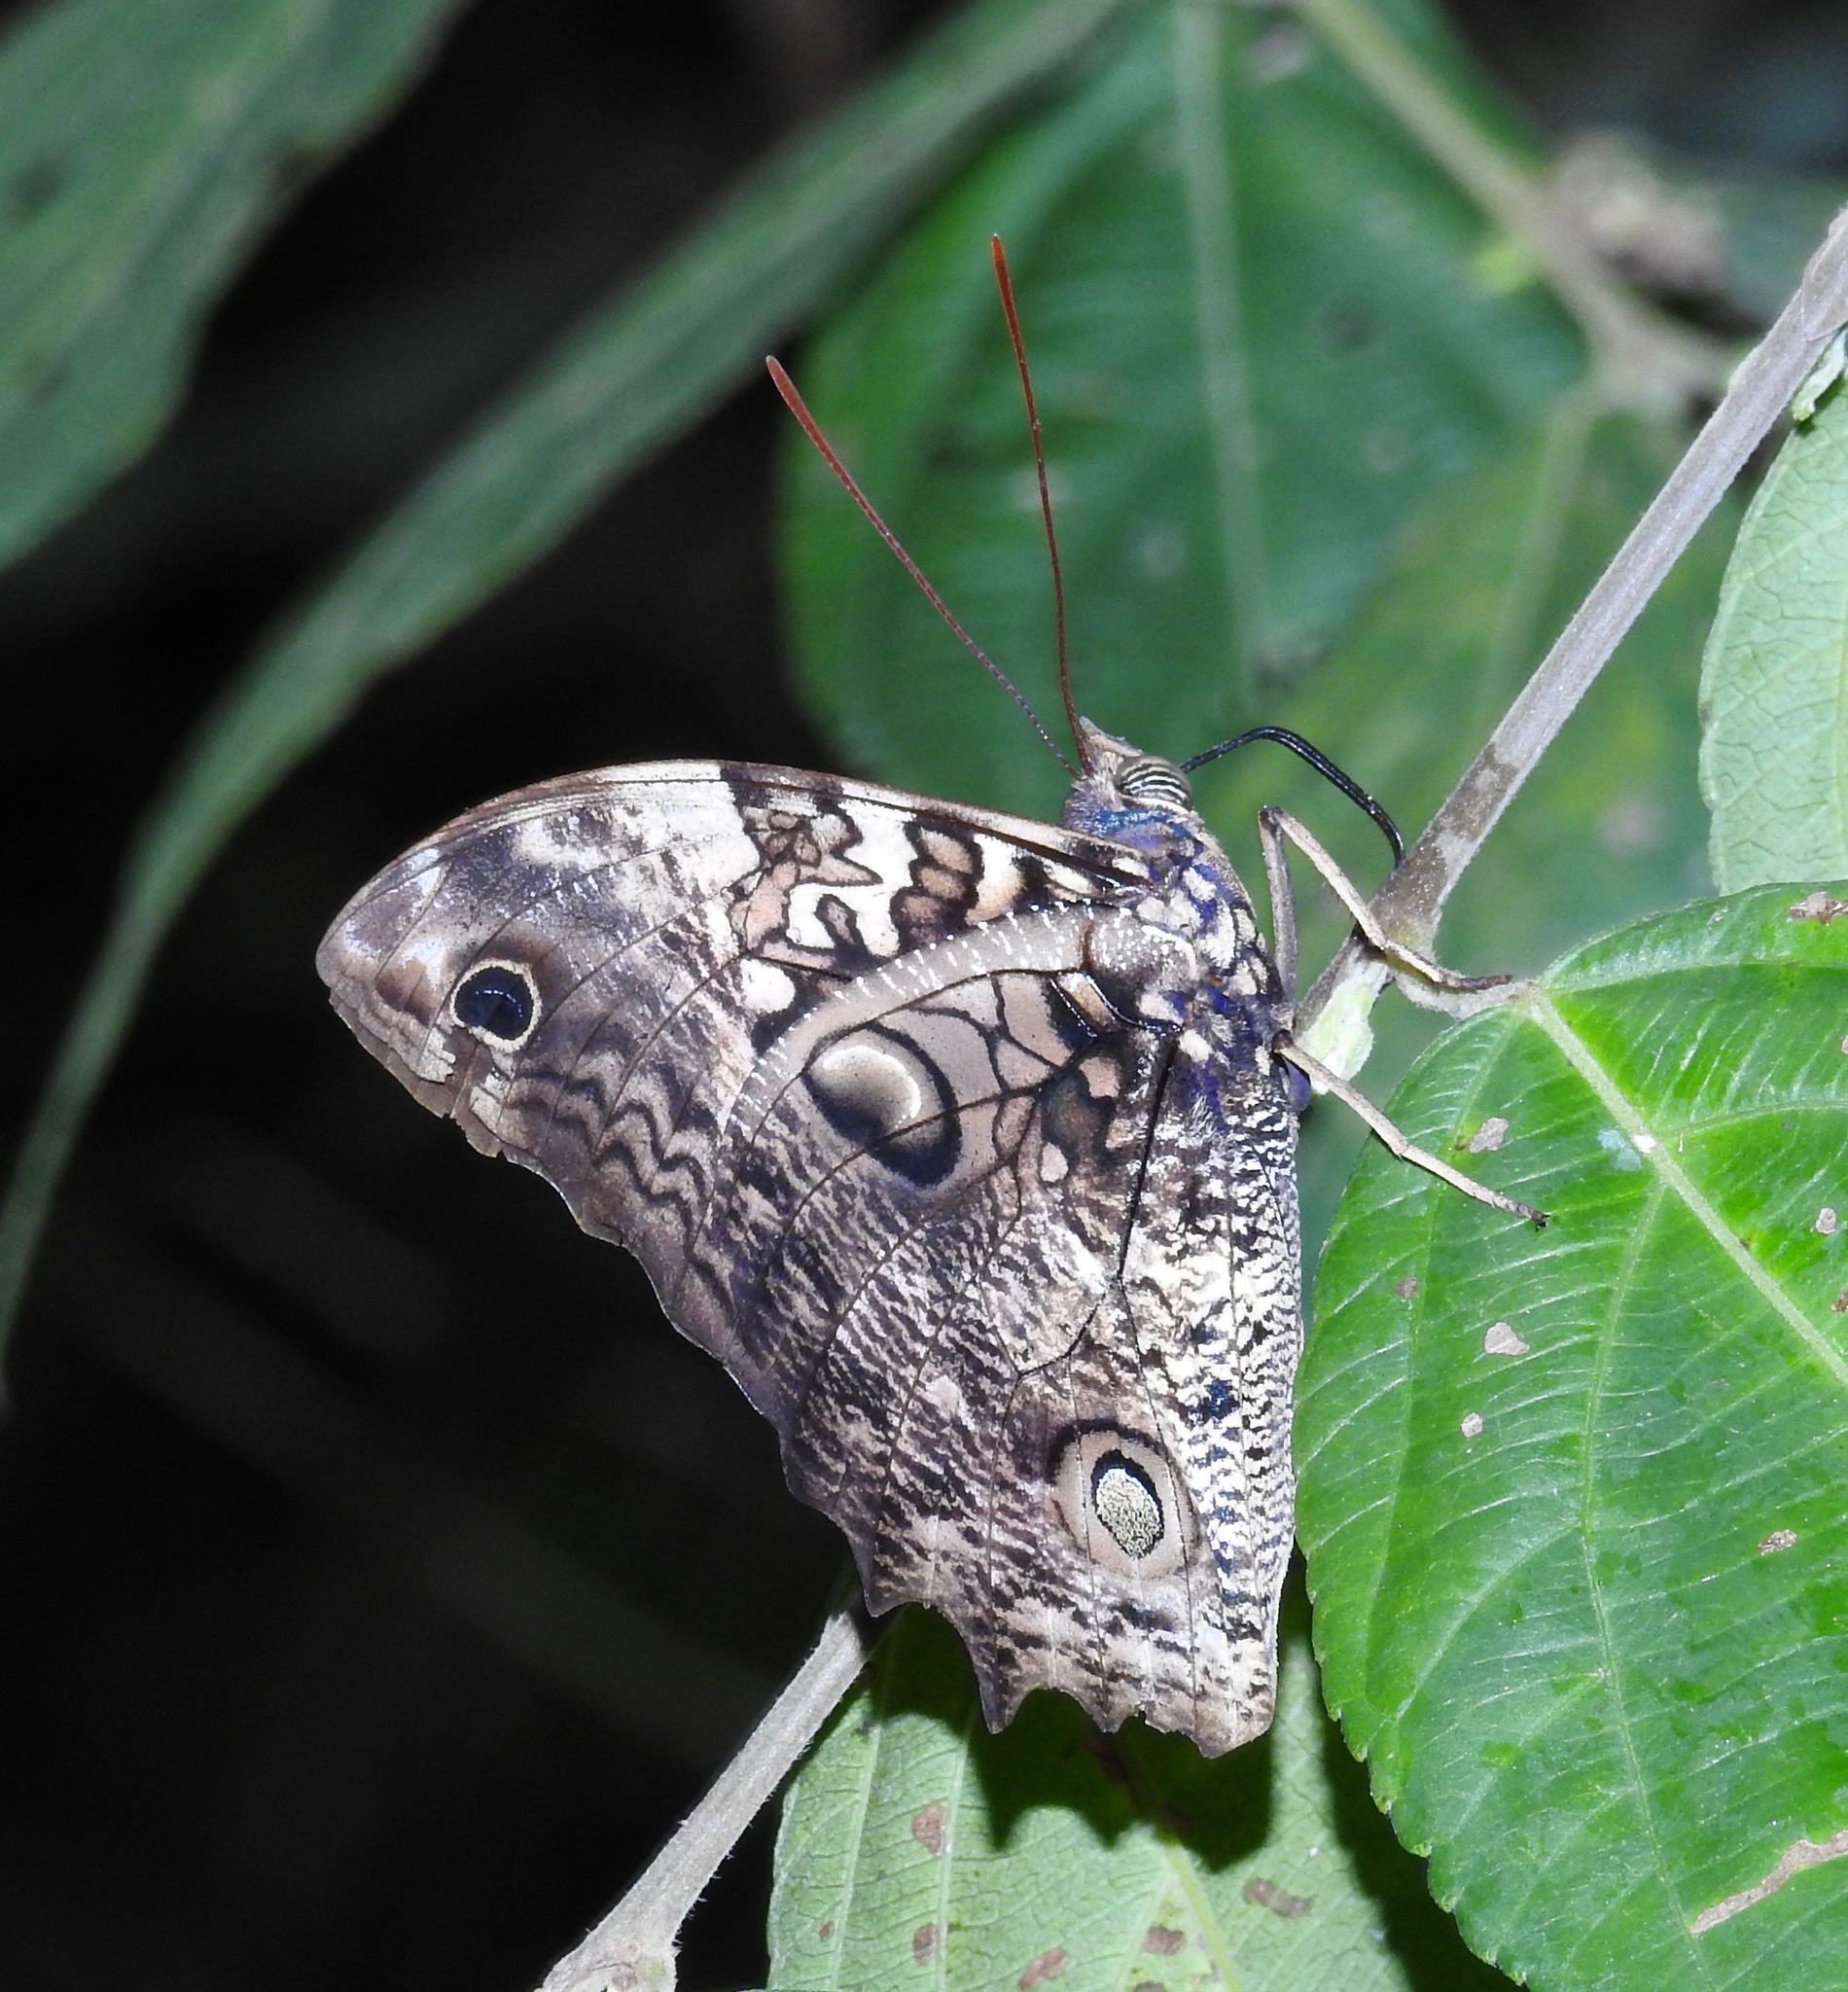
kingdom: Animalia
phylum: Arthropoda
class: Insecta
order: Lepidoptera
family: Nymphalidae
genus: Opsiphanes
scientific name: Opsiphanes quiteria
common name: Scalloped owlet
